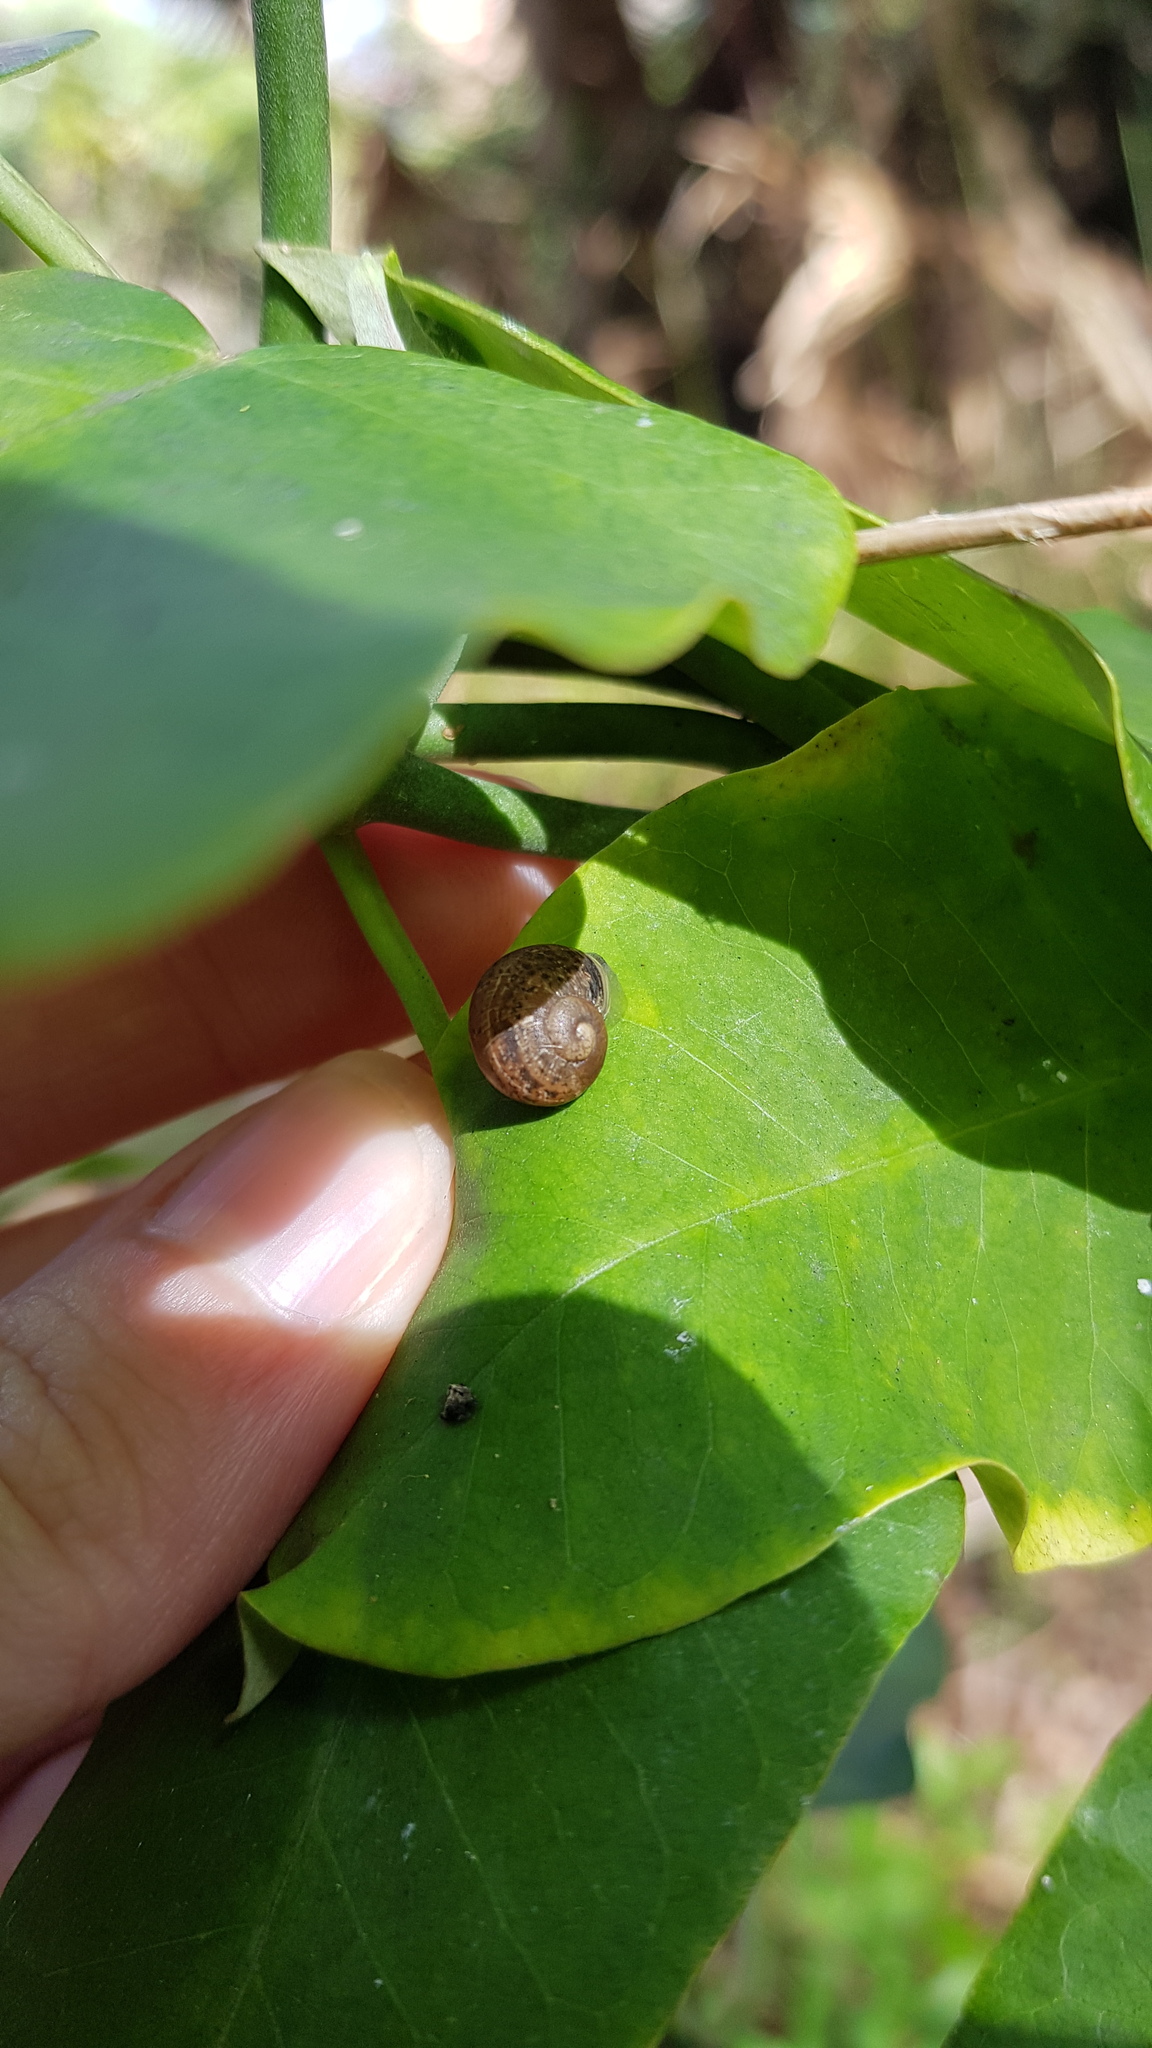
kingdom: Animalia
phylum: Mollusca
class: Gastropoda
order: Stylommatophora
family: Helicidae
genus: Cornu
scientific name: Cornu aspersum
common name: Brown garden snail
